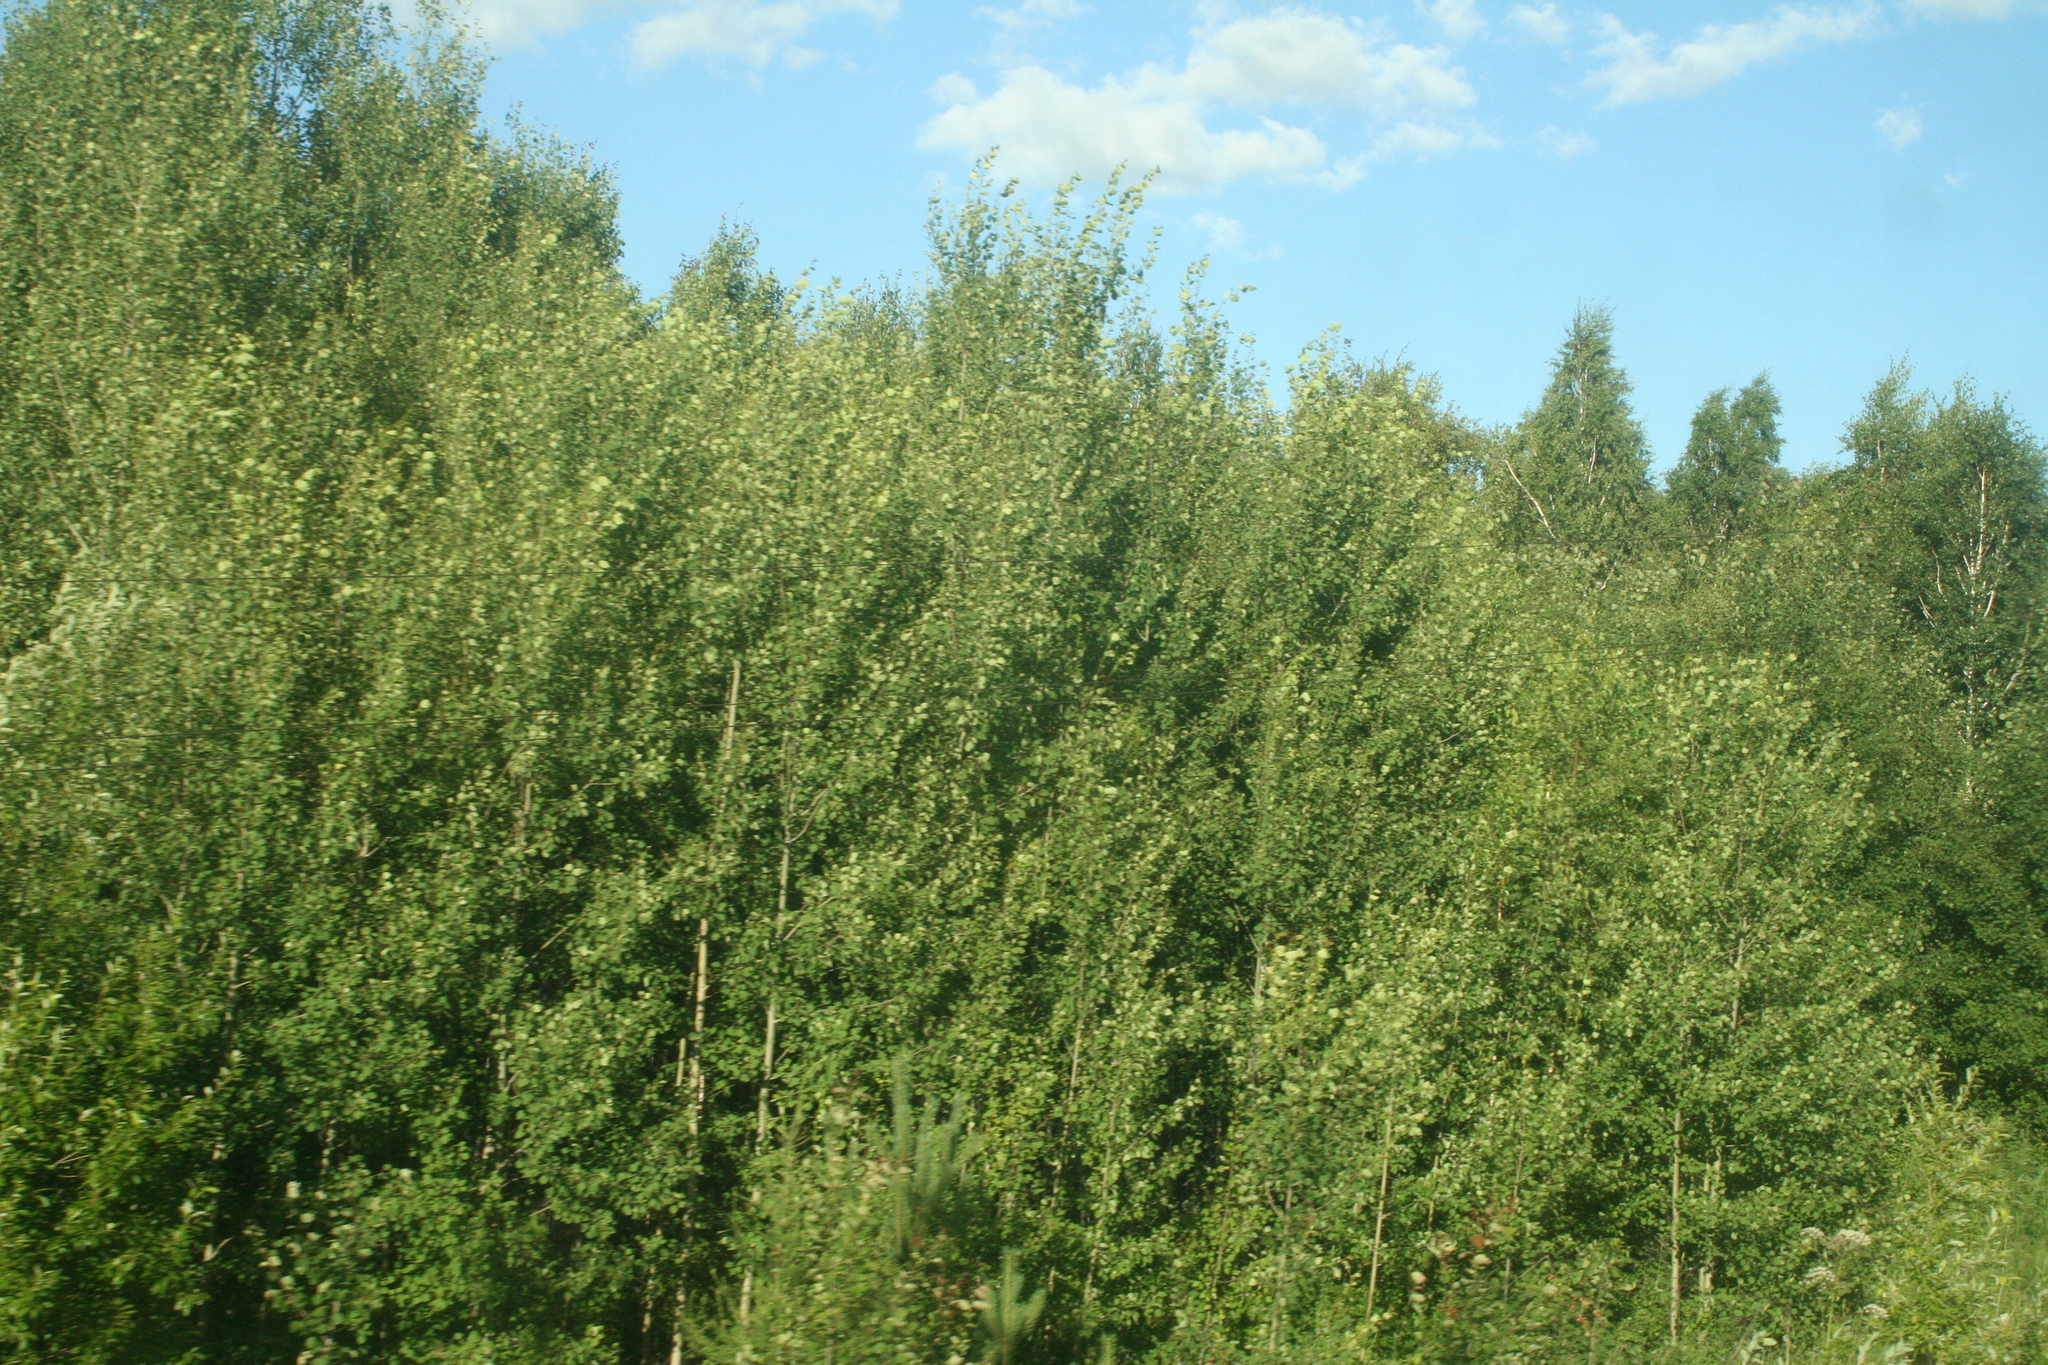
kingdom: Plantae
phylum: Tracheophyta
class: Magnoliopsida
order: Malpighiales
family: Salicaceae
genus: Populus
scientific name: Populus tremula
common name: European aspen
